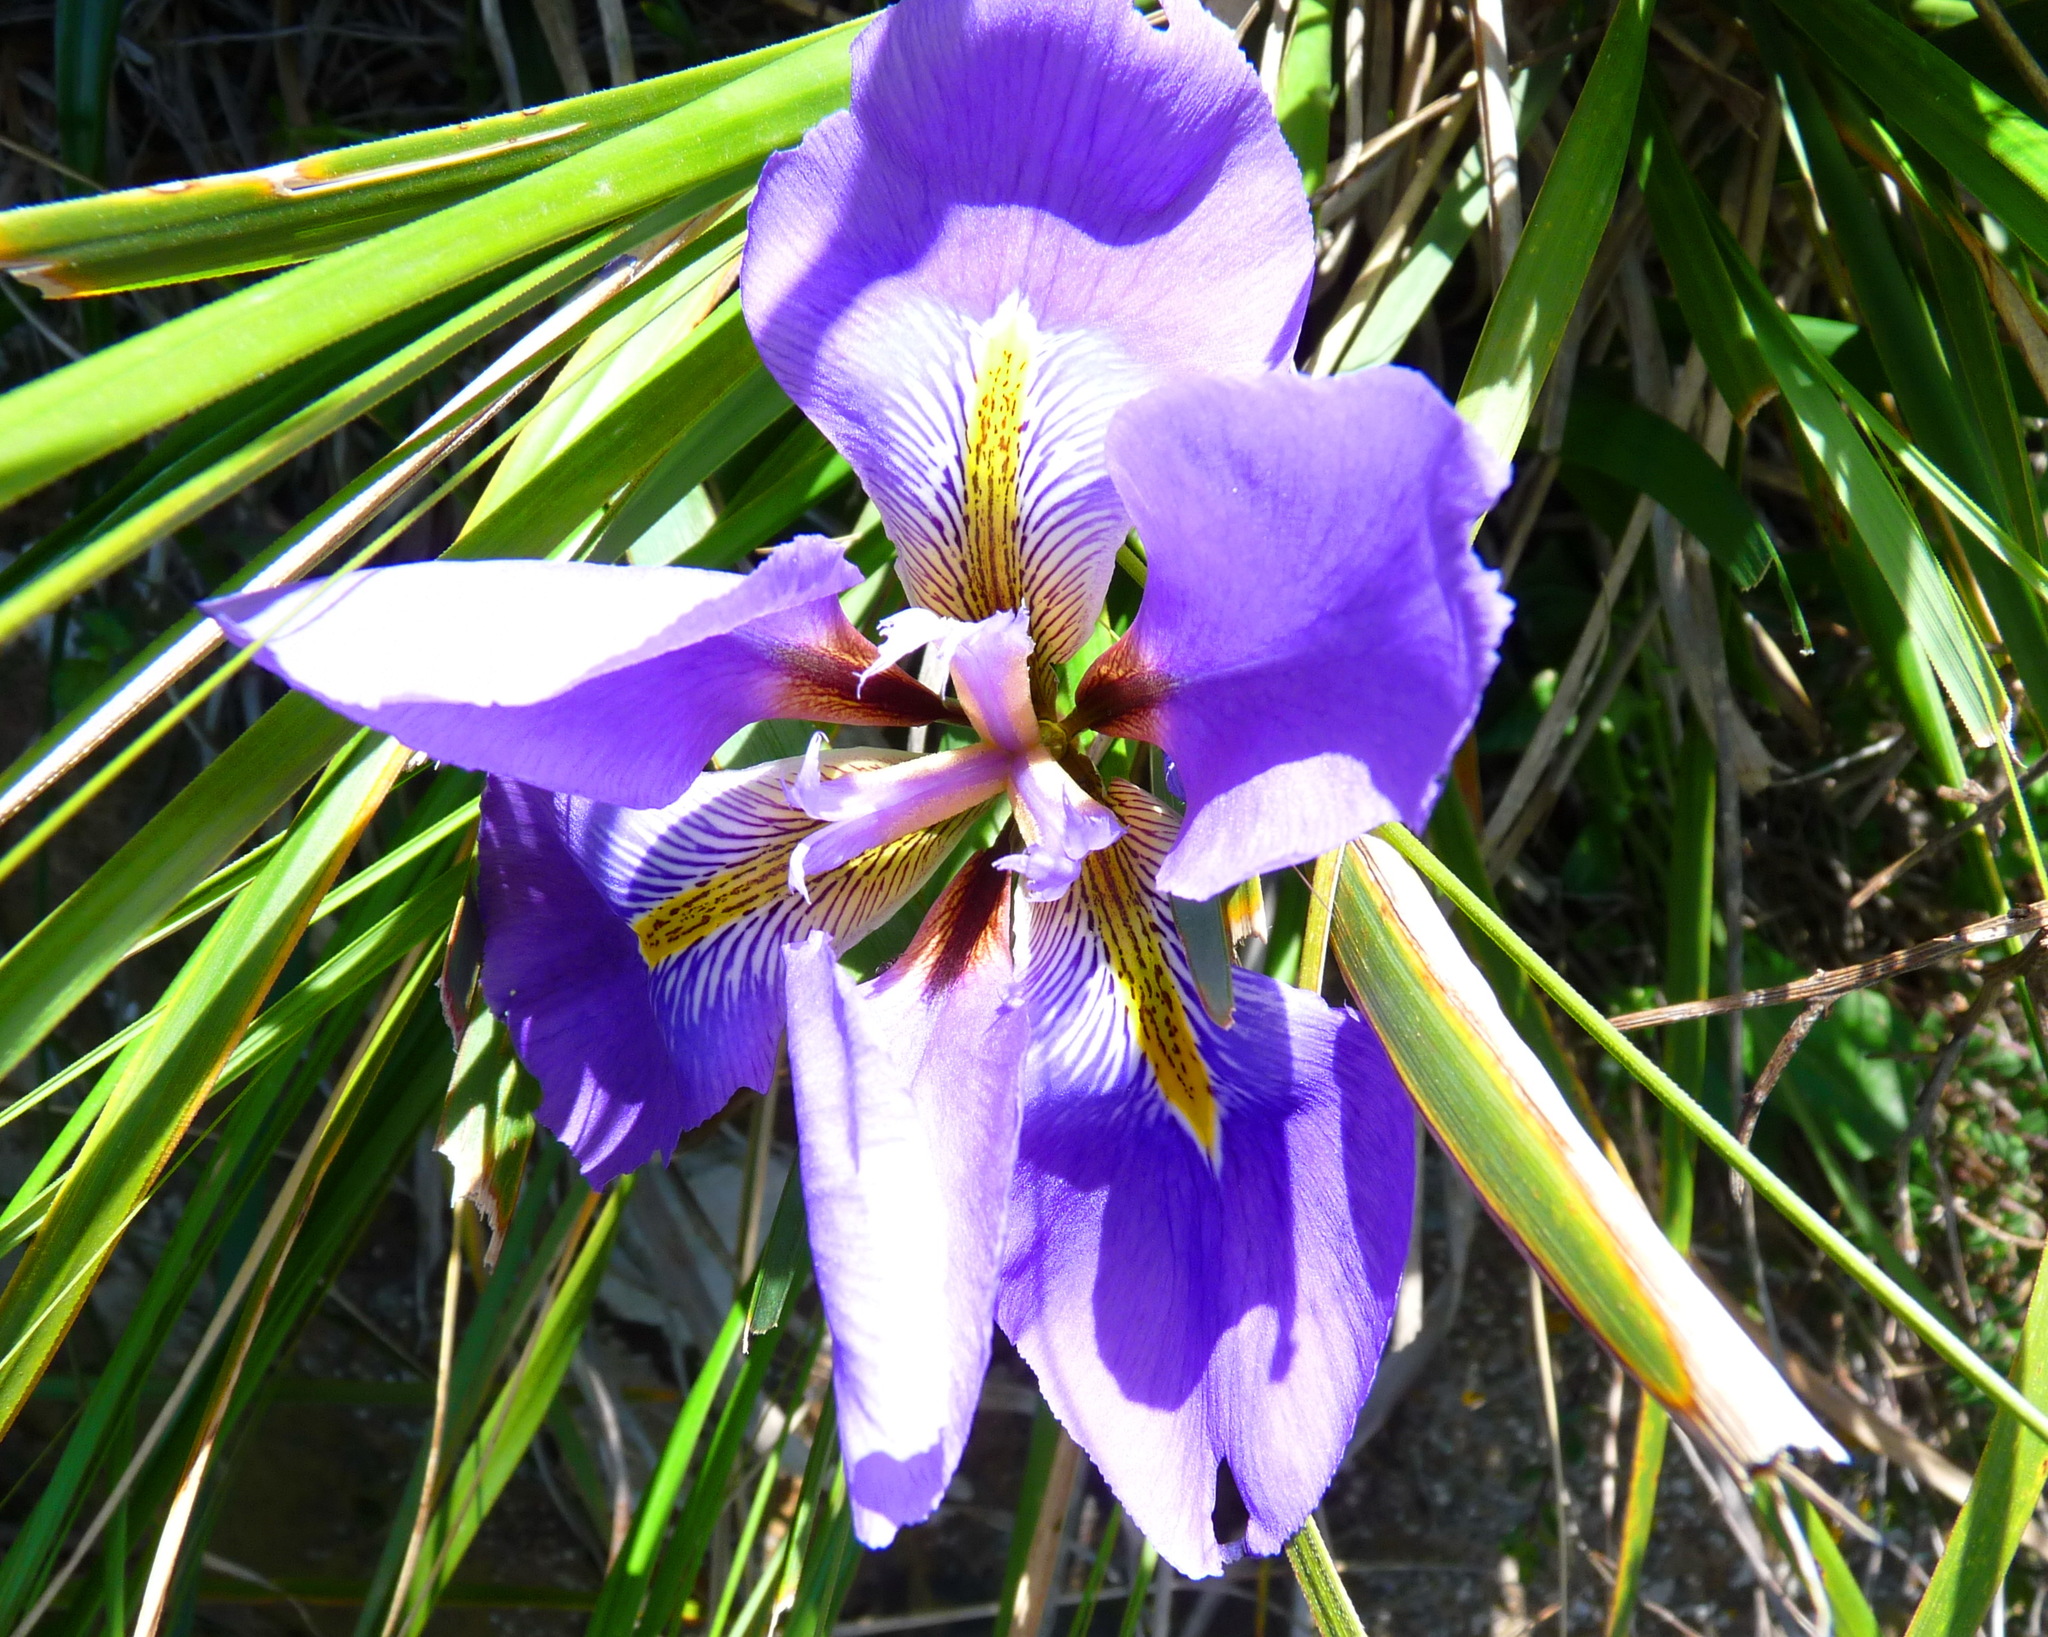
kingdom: Plantae
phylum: Tracheophyta
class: Liliopsida
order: Asparagales
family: Iridaceae
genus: Iris
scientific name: Iris unguicularis
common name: Algerian iris
